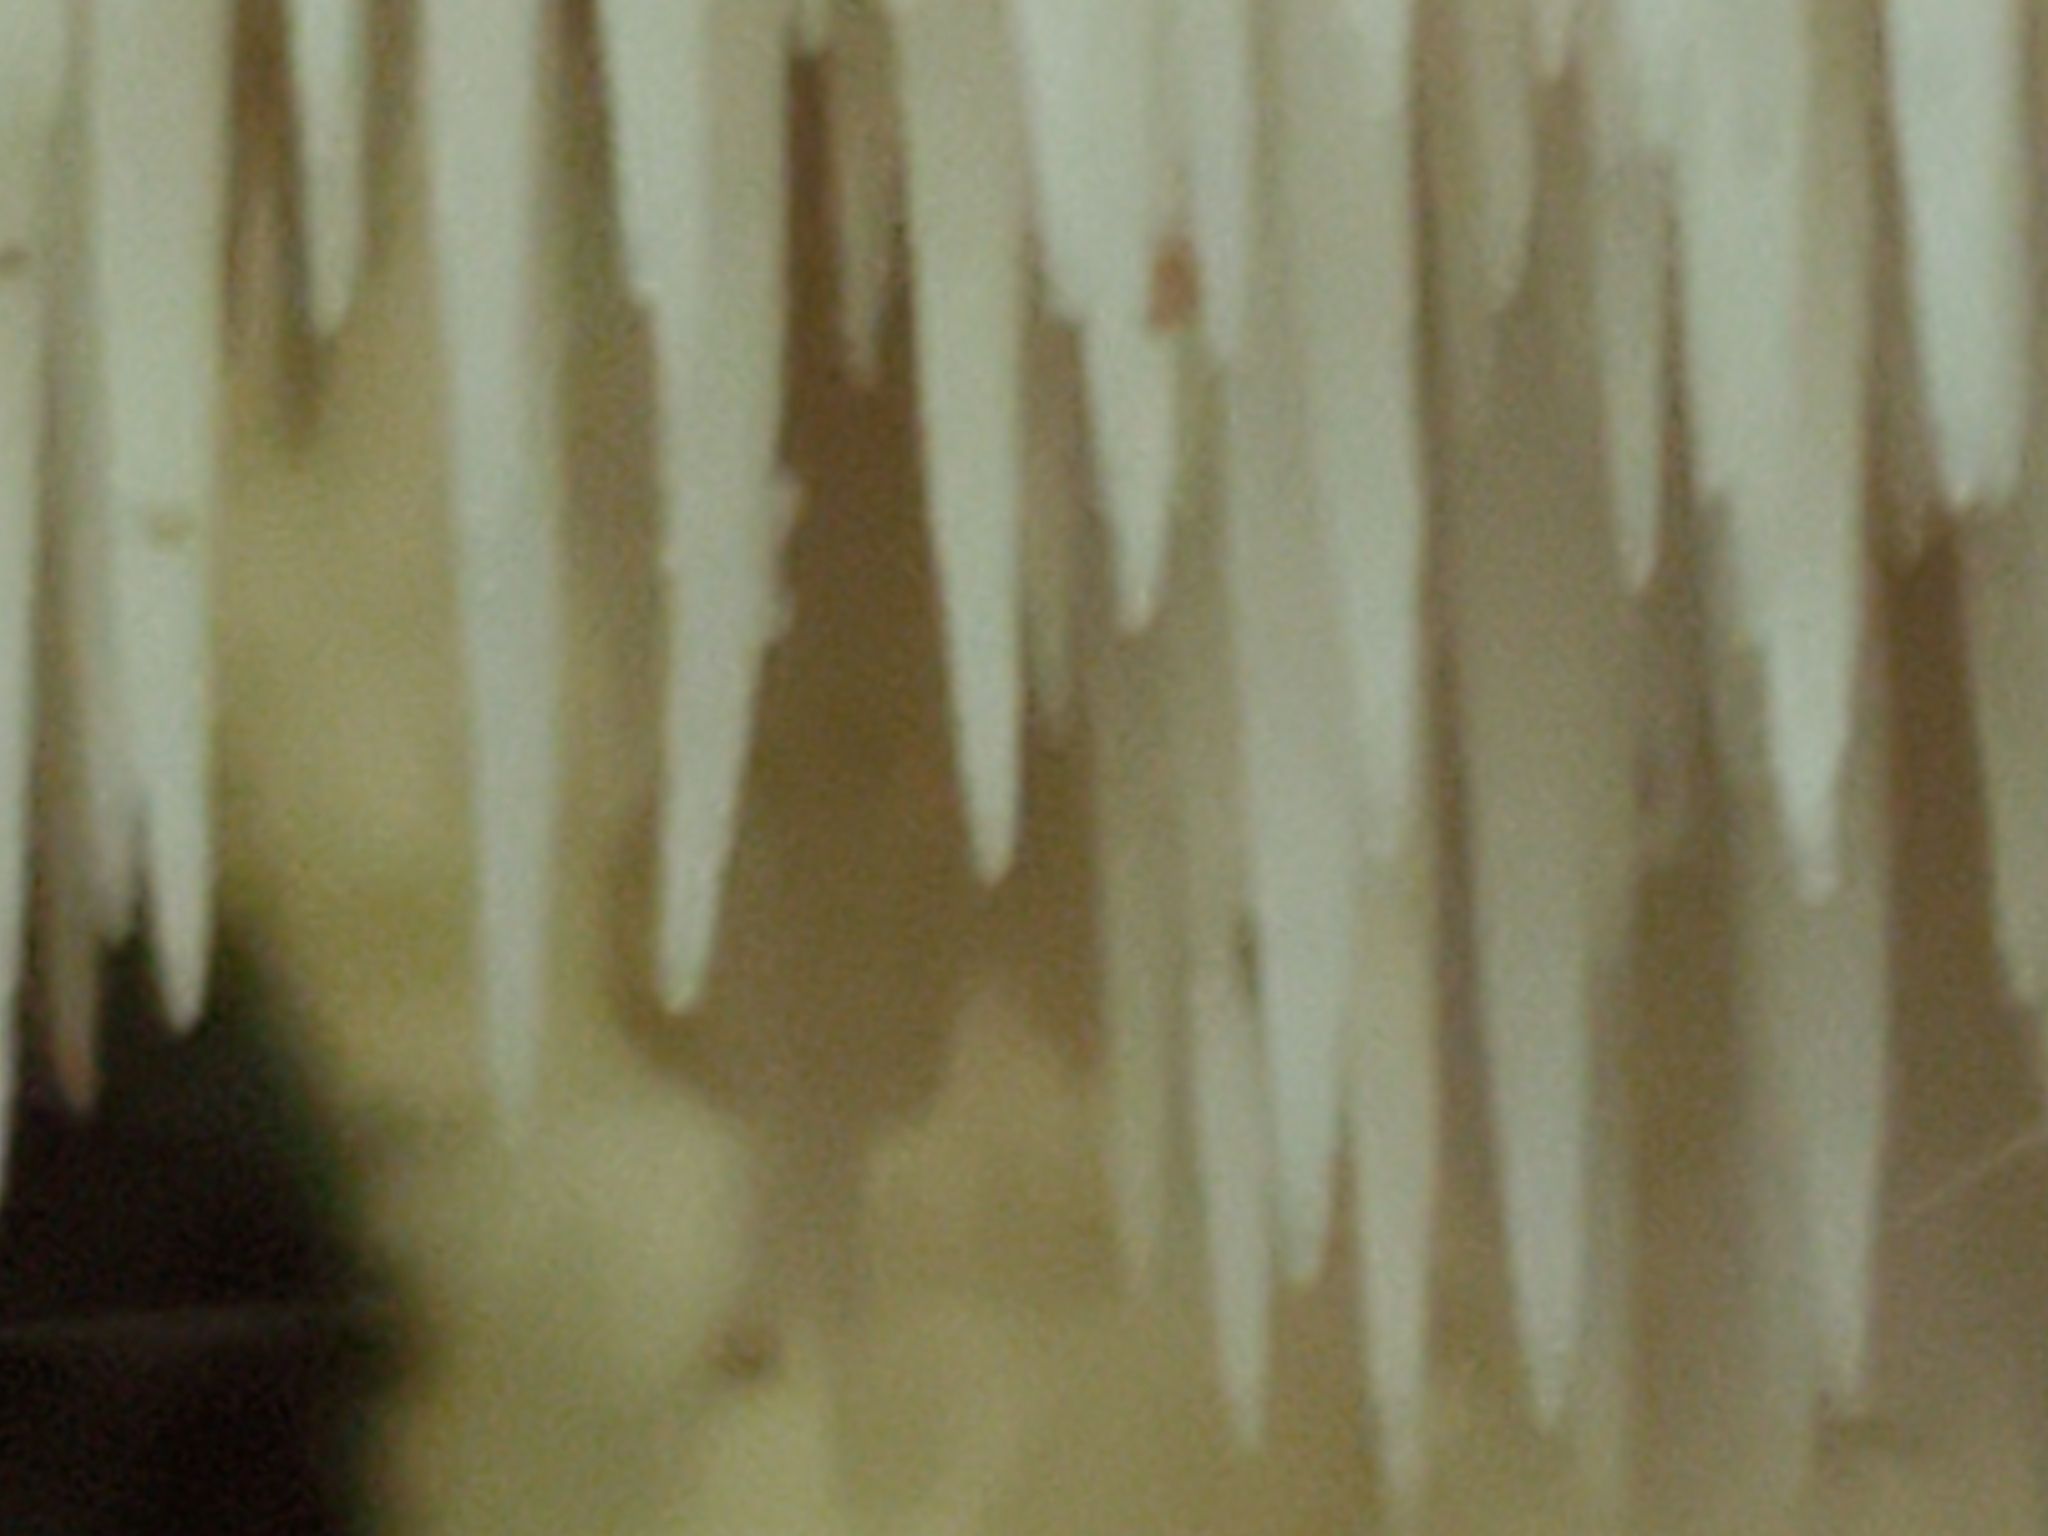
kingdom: Fungi
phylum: Basidiomycota
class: Agaricomycetes
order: Russulales
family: Hericiaceae
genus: Hericium
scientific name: Hericium americanum
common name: Bear's head tooth
